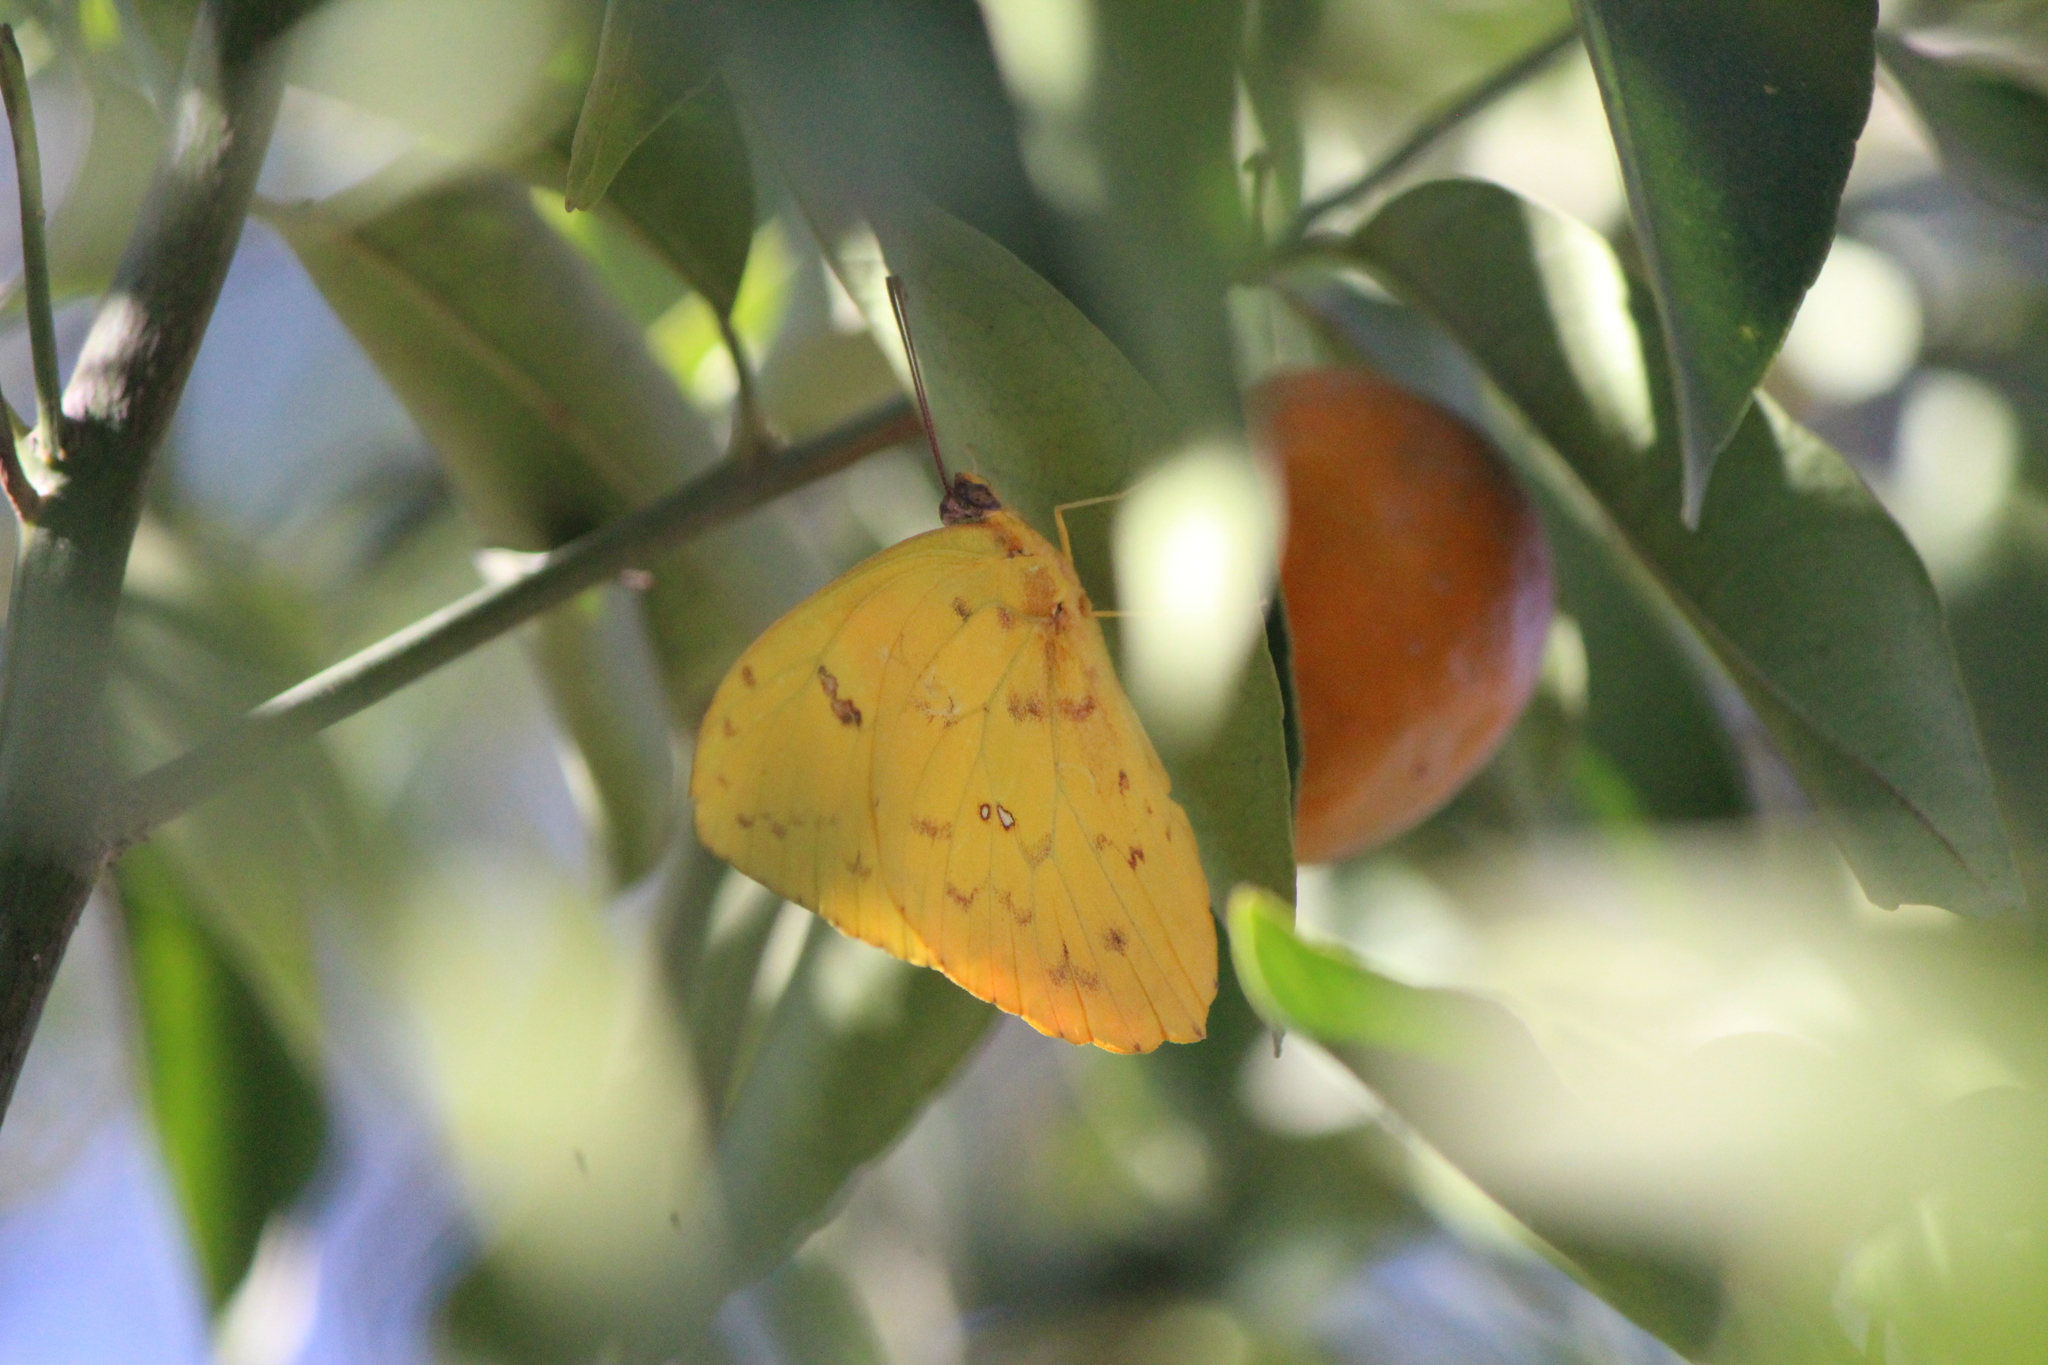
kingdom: Animalia
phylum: Arthropoda
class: Insecta
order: Lepidoptera
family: Pieridae
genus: Phoebis
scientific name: Phoebis philea
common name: Orange-barred giant sulphur
